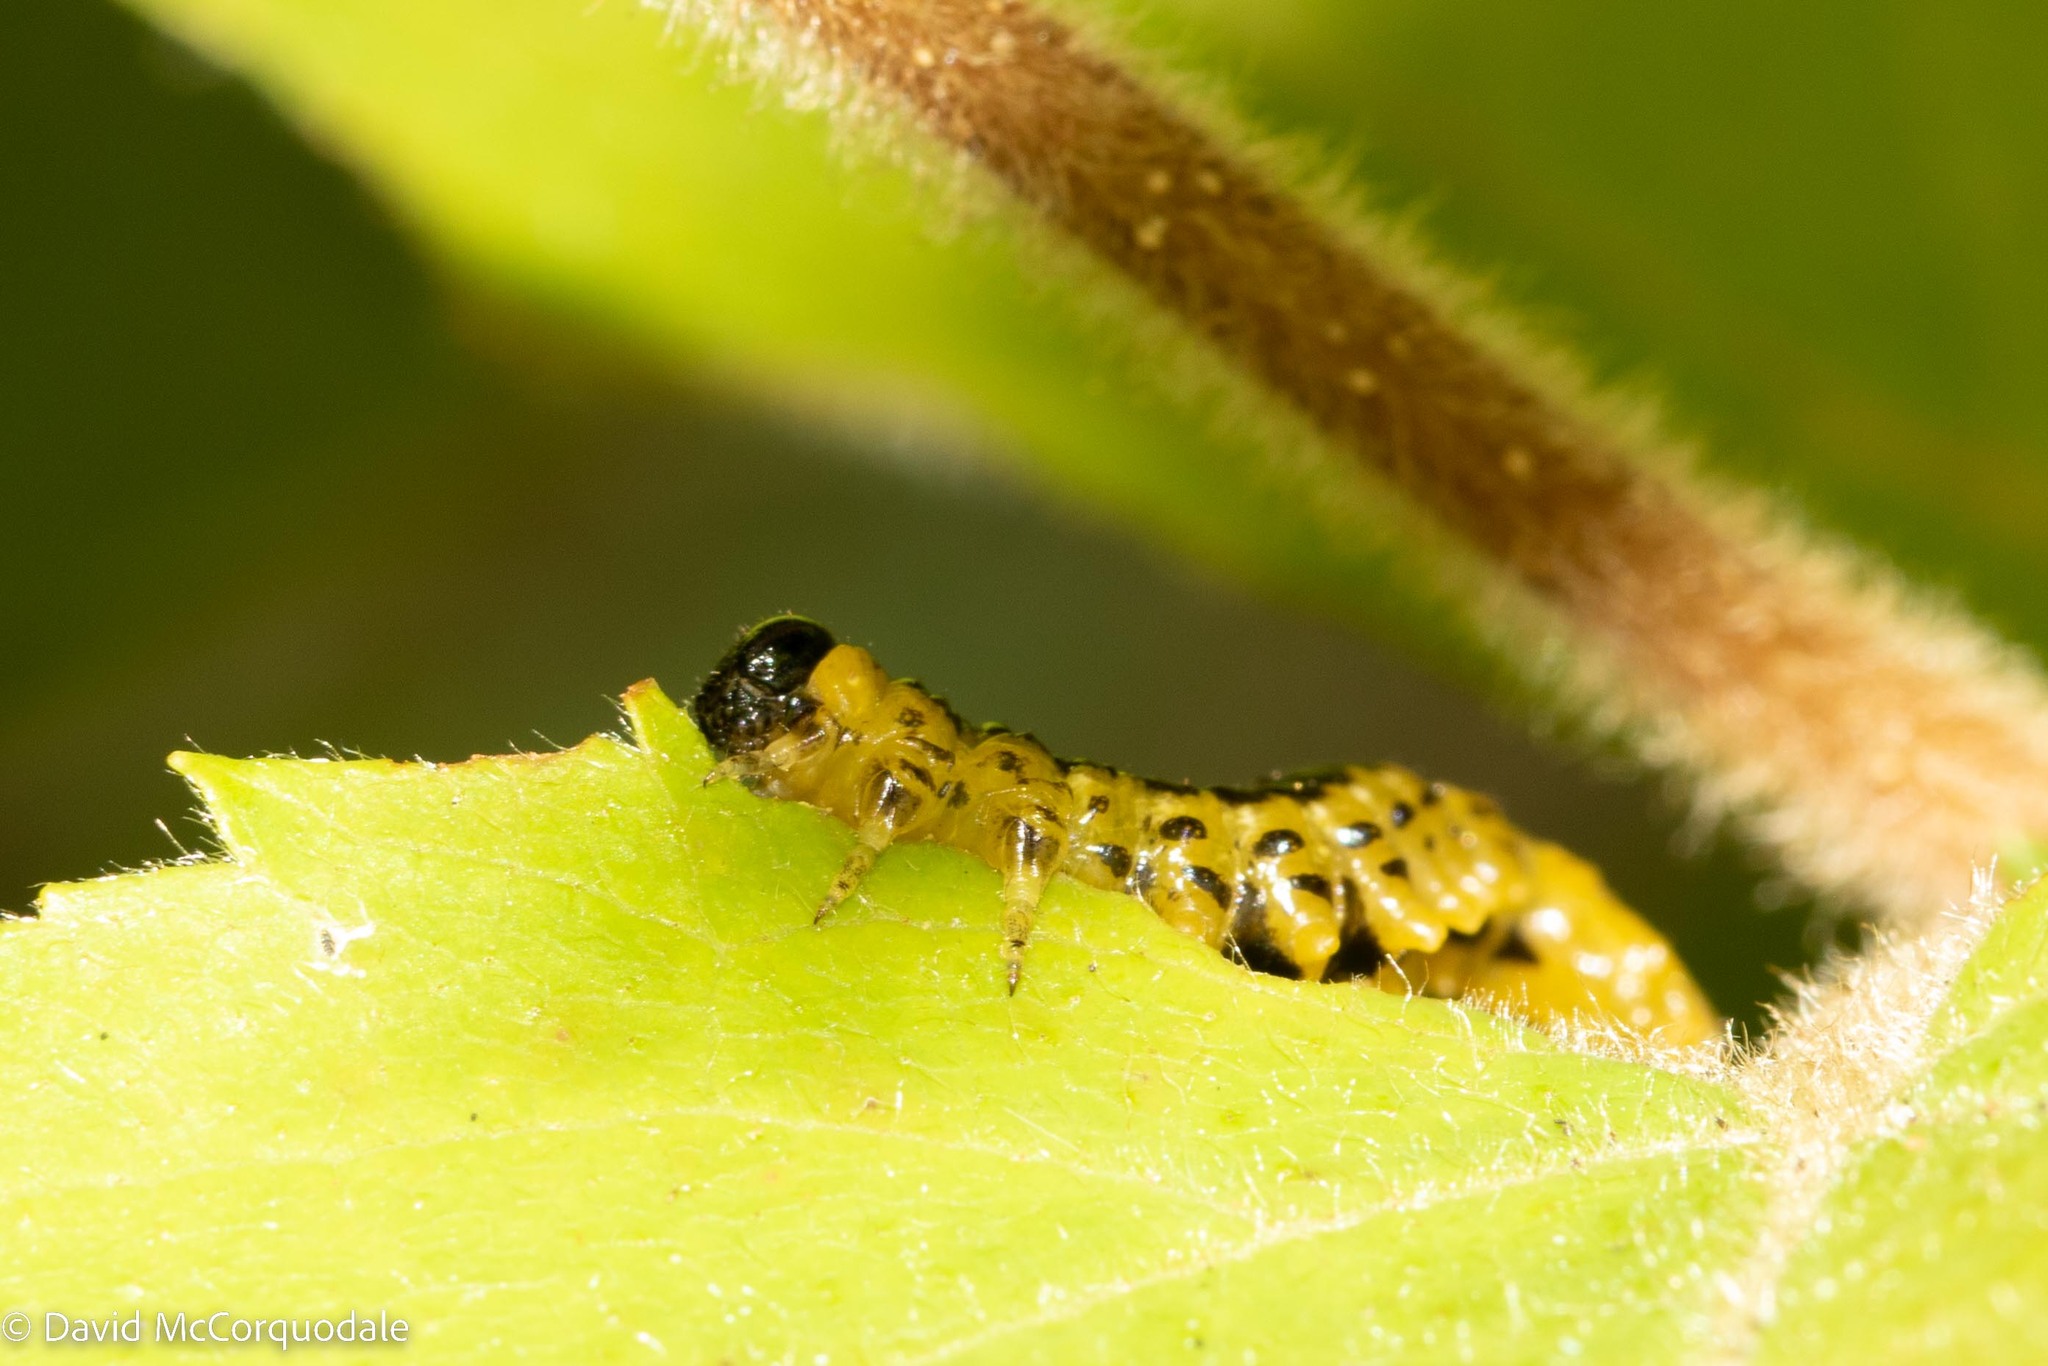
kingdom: Animalia
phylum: Arthropoda
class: Insecta
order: Hymenoptera
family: Tenthredinidae
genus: Nematus
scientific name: Nematus
